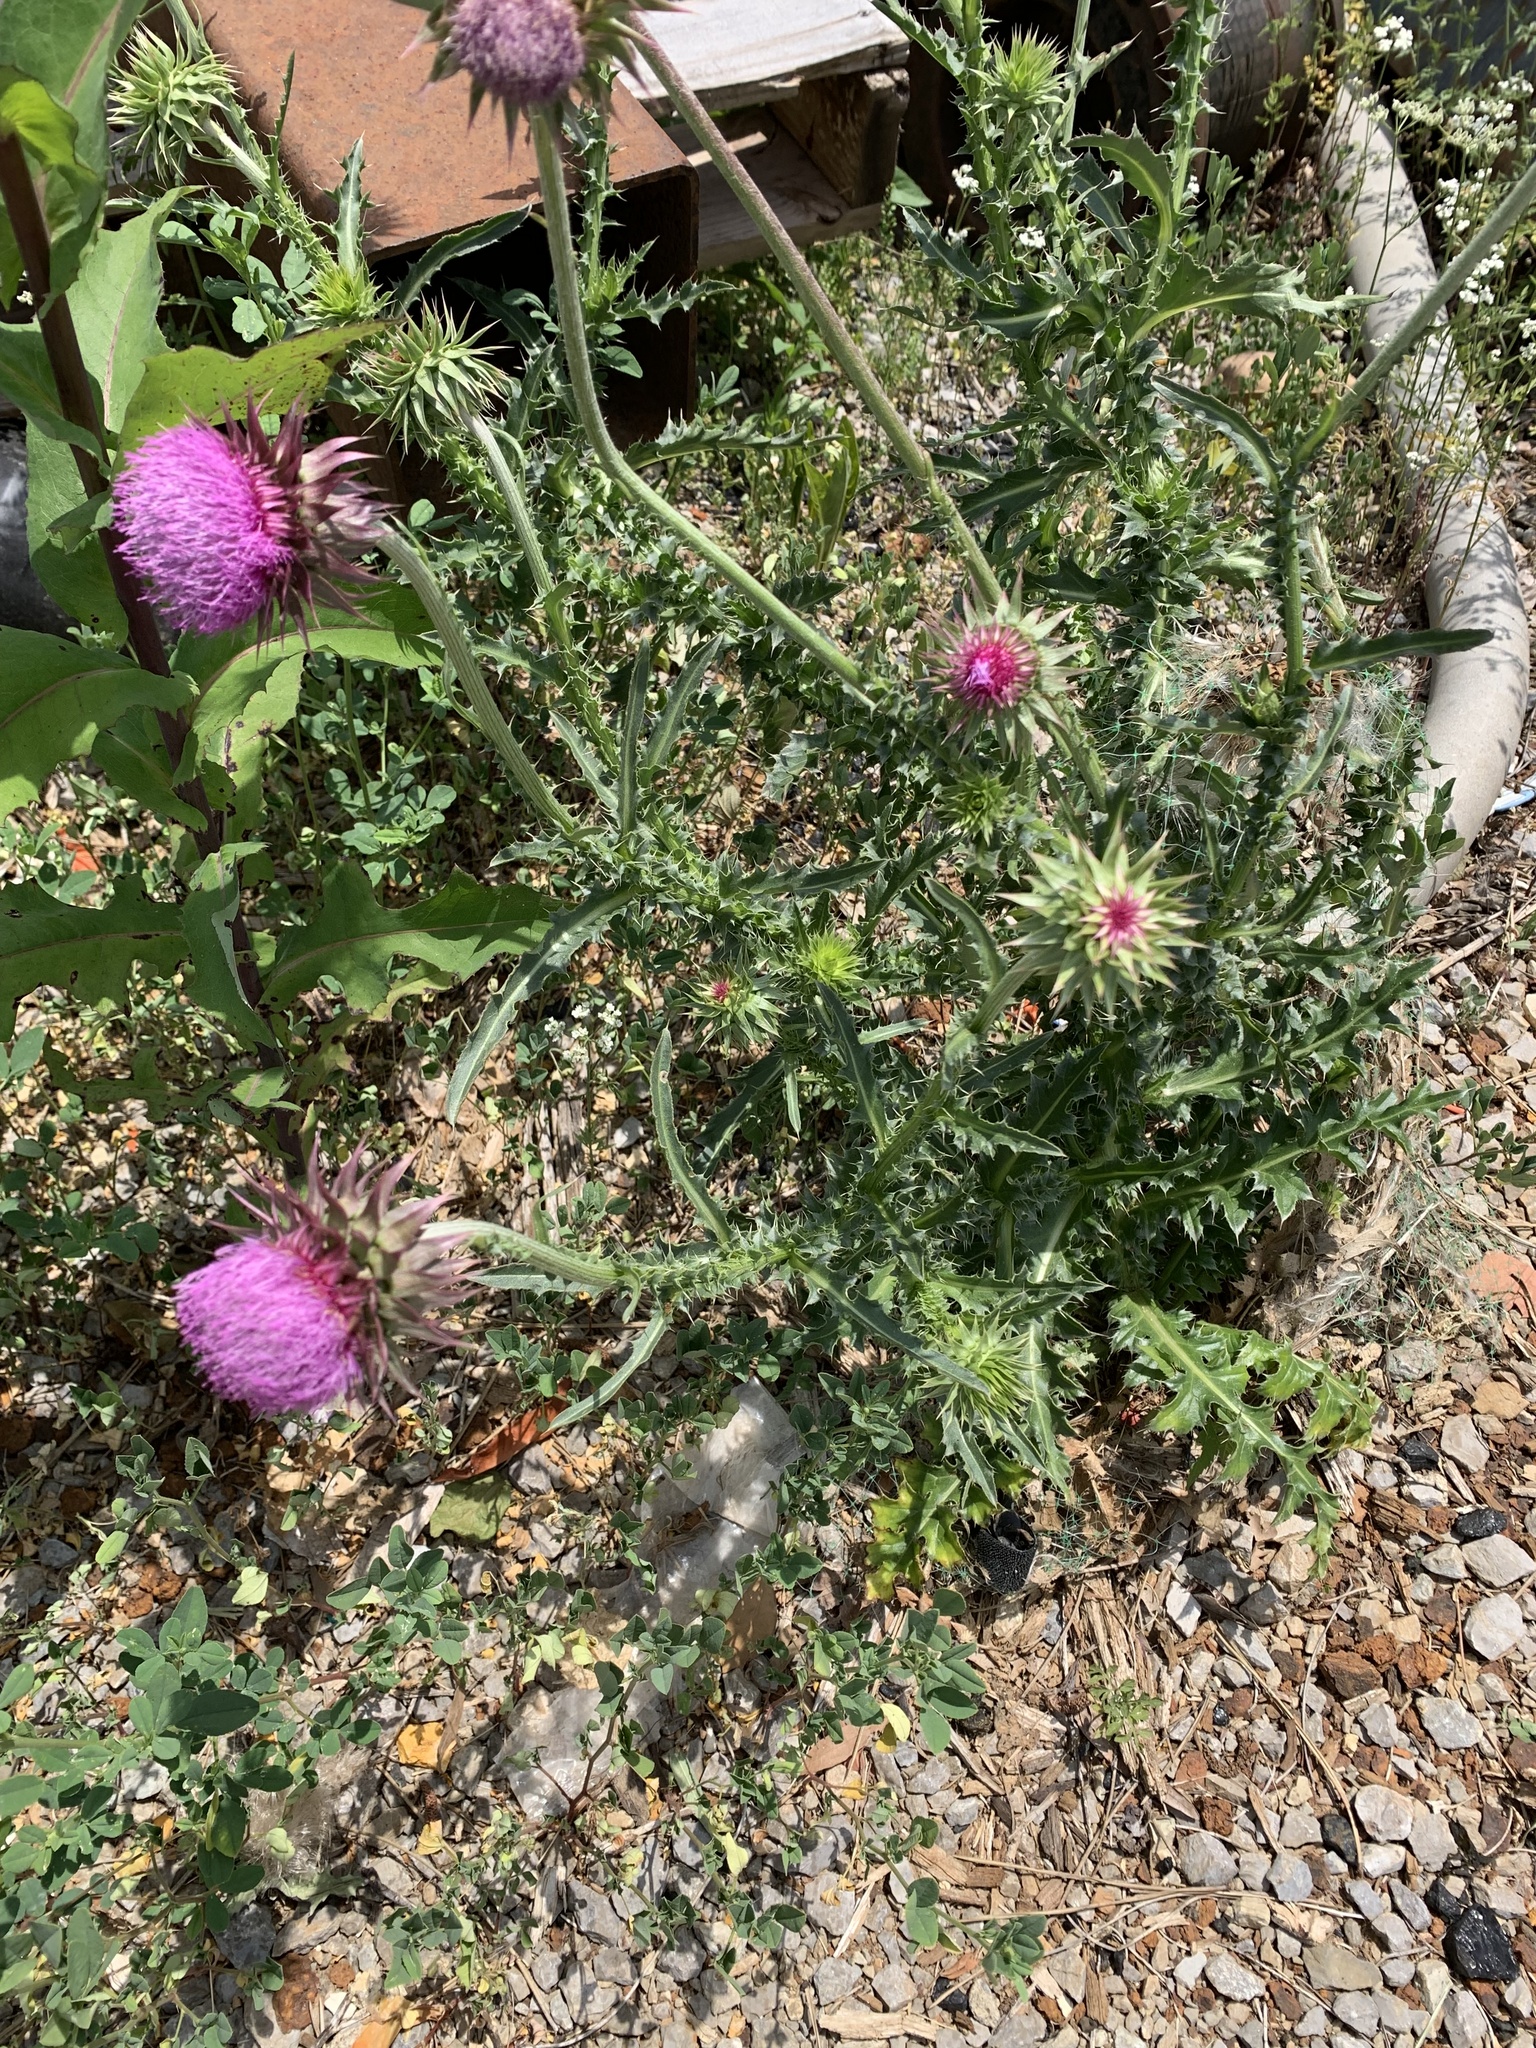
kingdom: Plantae
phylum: Tracheophyta
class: Magnoliopsida
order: Asterales
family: Asteraceae
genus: Carduus
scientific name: Carduus nutans
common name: Musk thistle
